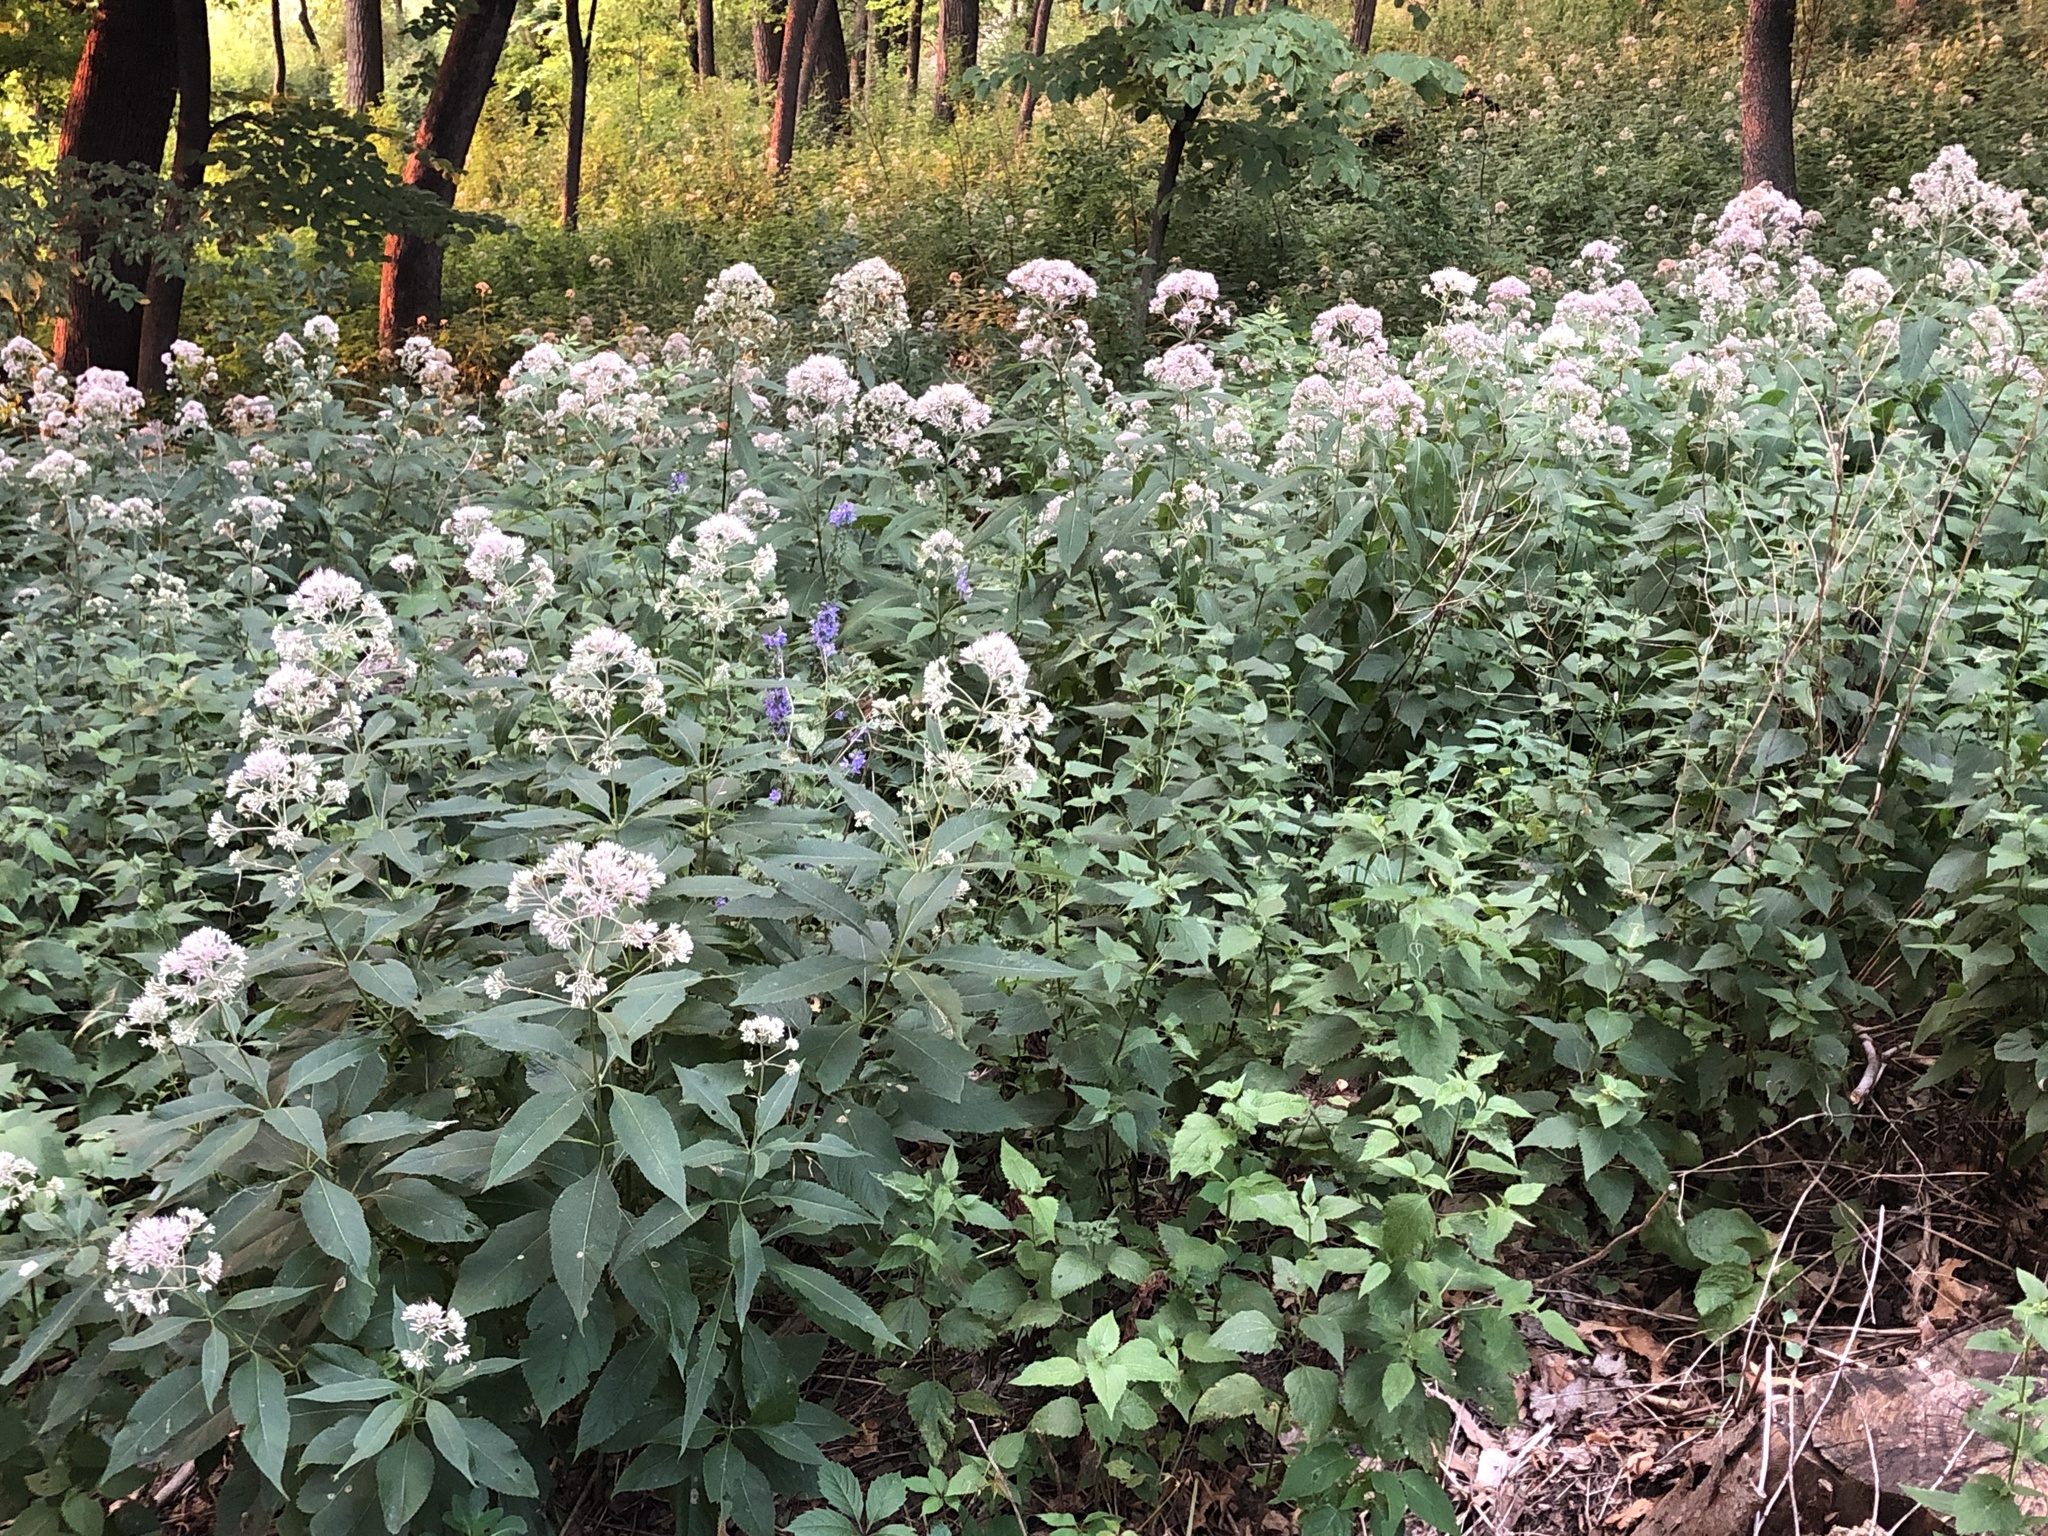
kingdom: Plantae
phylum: Tracheophyta
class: Magnoliopsida
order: Asterales
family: Asteraceae
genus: Eutrochium
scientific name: Eutrochium purpureum
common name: Gravelroot
